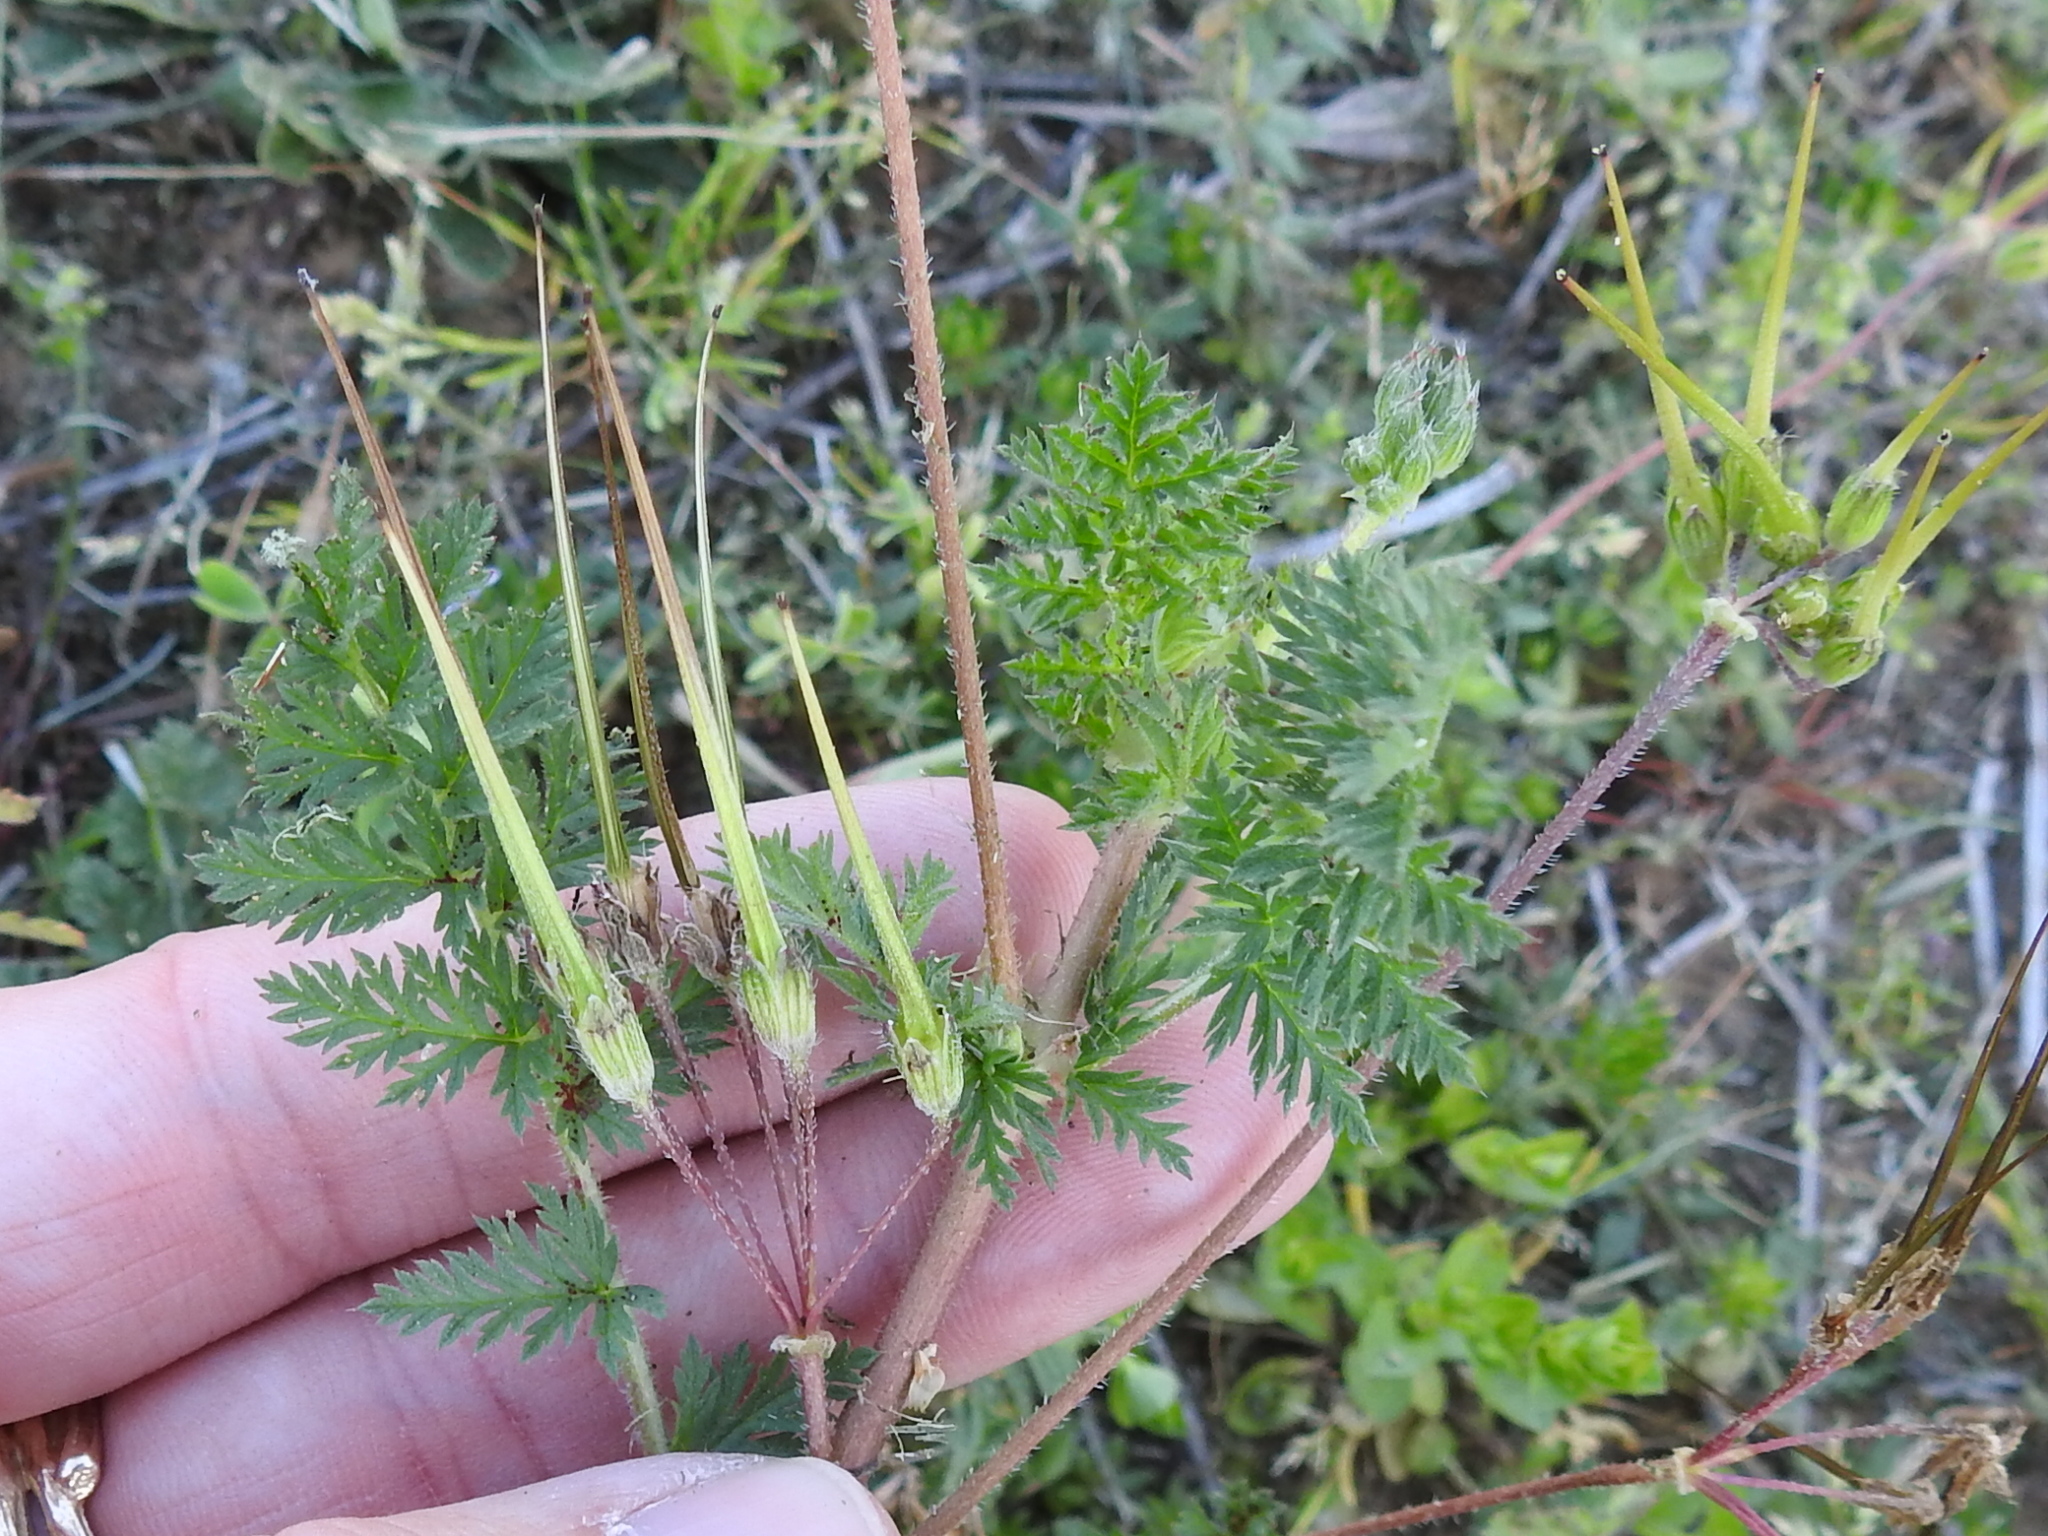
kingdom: Plantae
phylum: Tracheophyta
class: Magnoliopsida
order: Geraniales
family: Geraniaceae
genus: Erodium
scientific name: Erodium cicutarium
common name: Common stork's-bill
